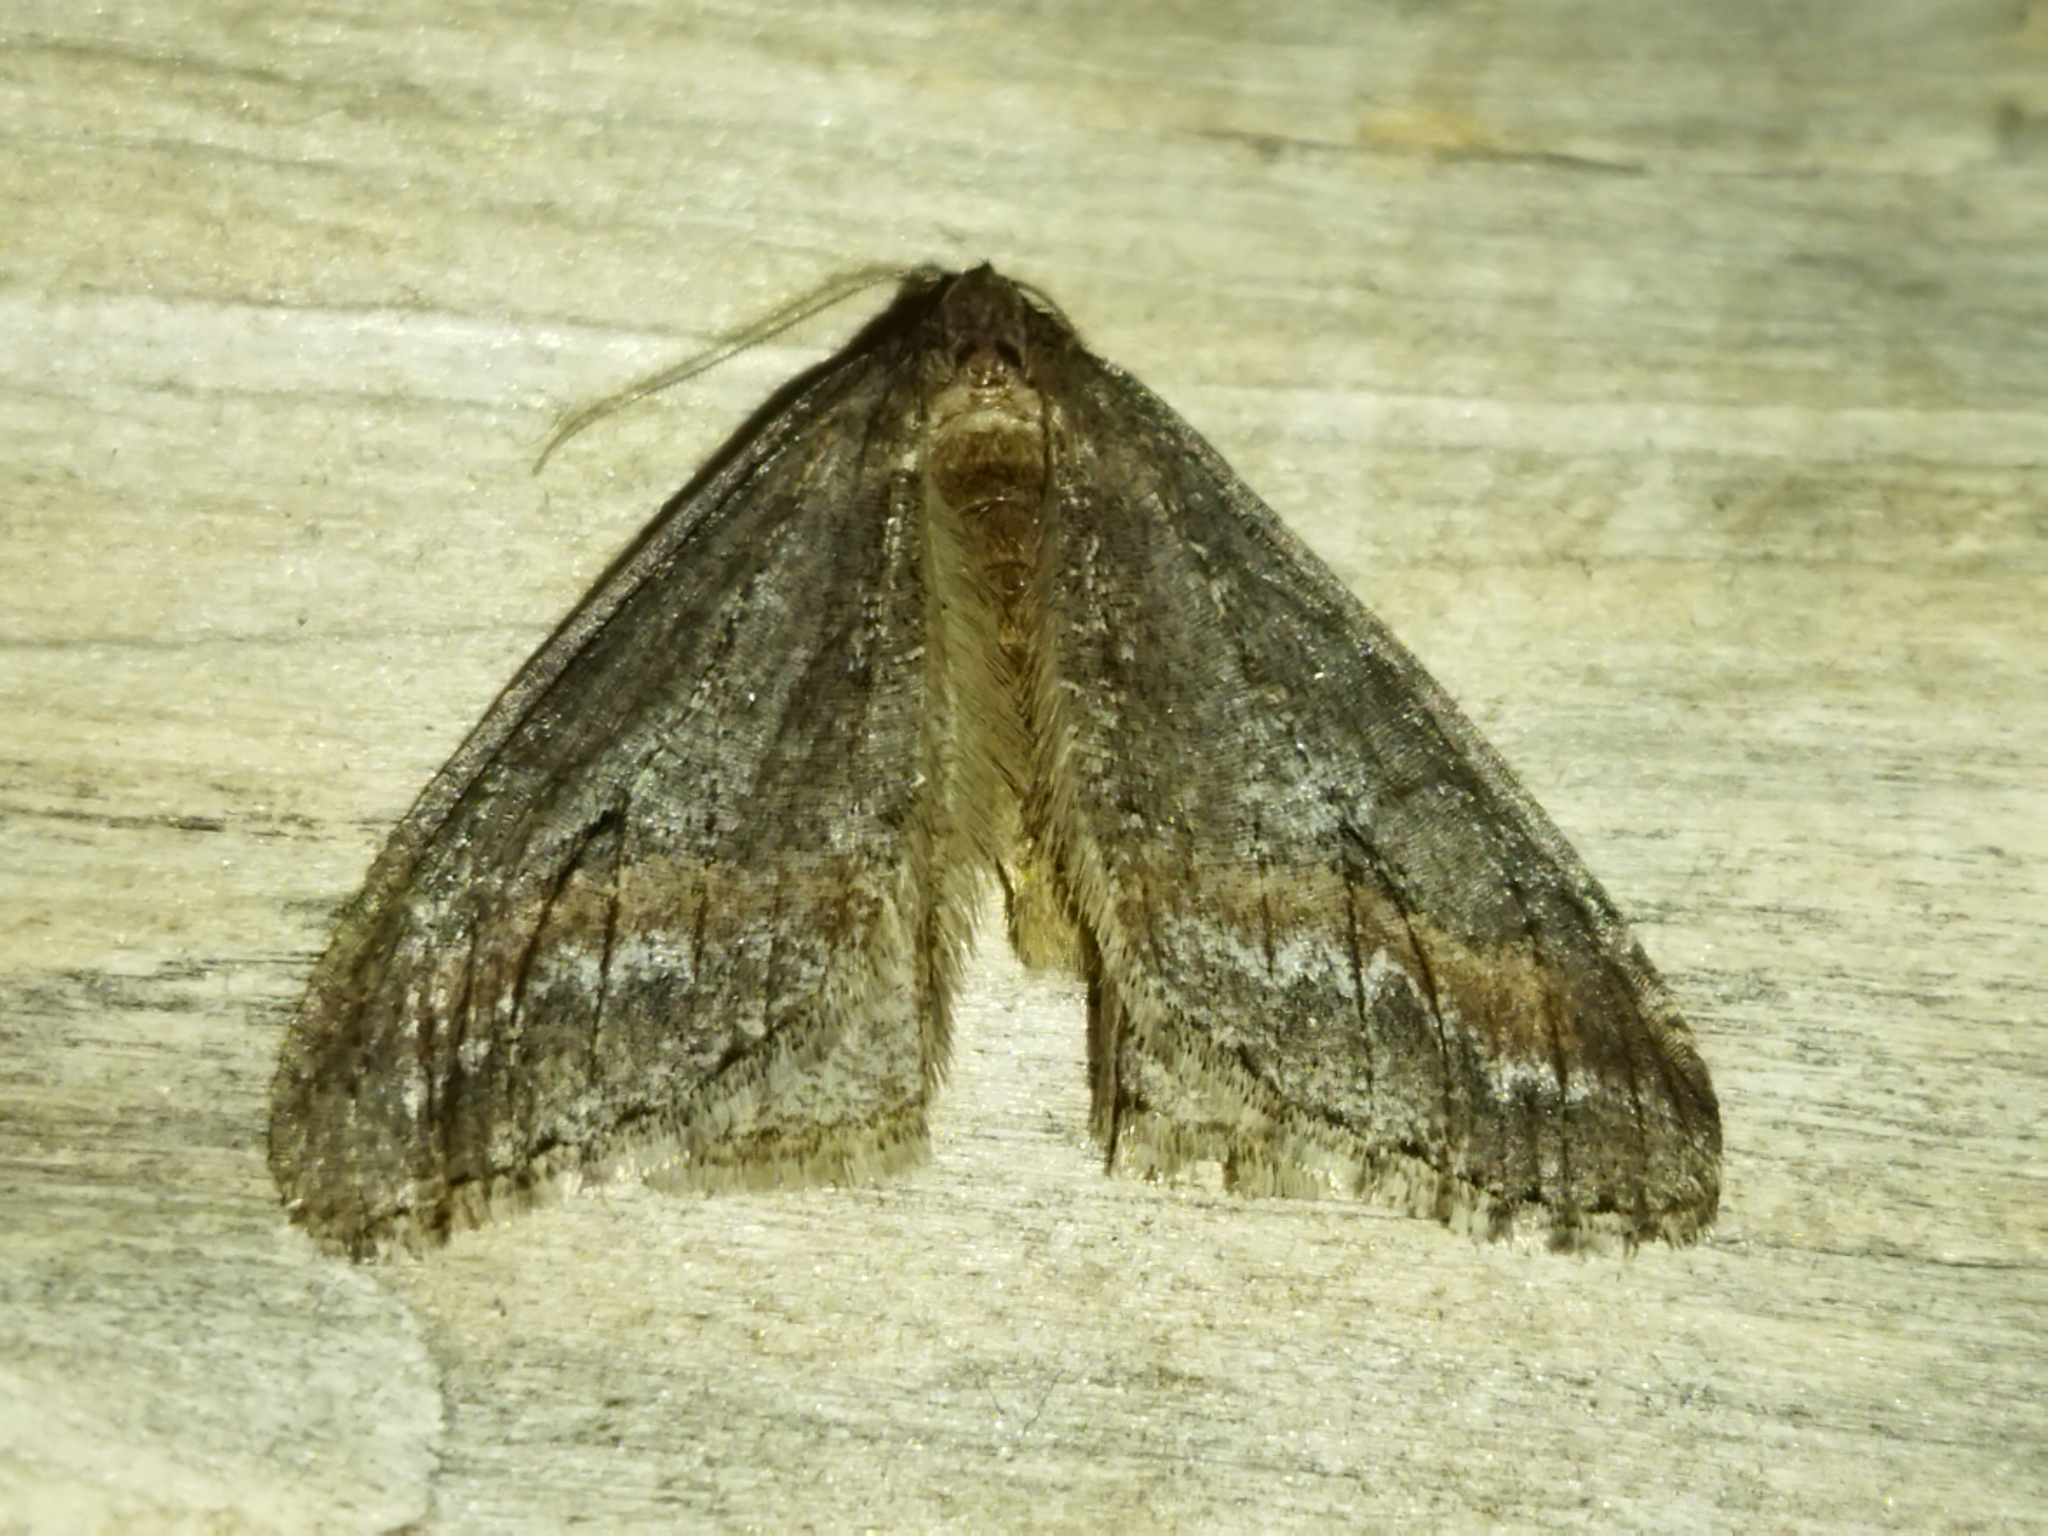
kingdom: Animalia
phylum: Arthropoda
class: Insecta
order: Lepidoptera
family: Geometridae
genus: Erannis
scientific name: Erannis declinans
